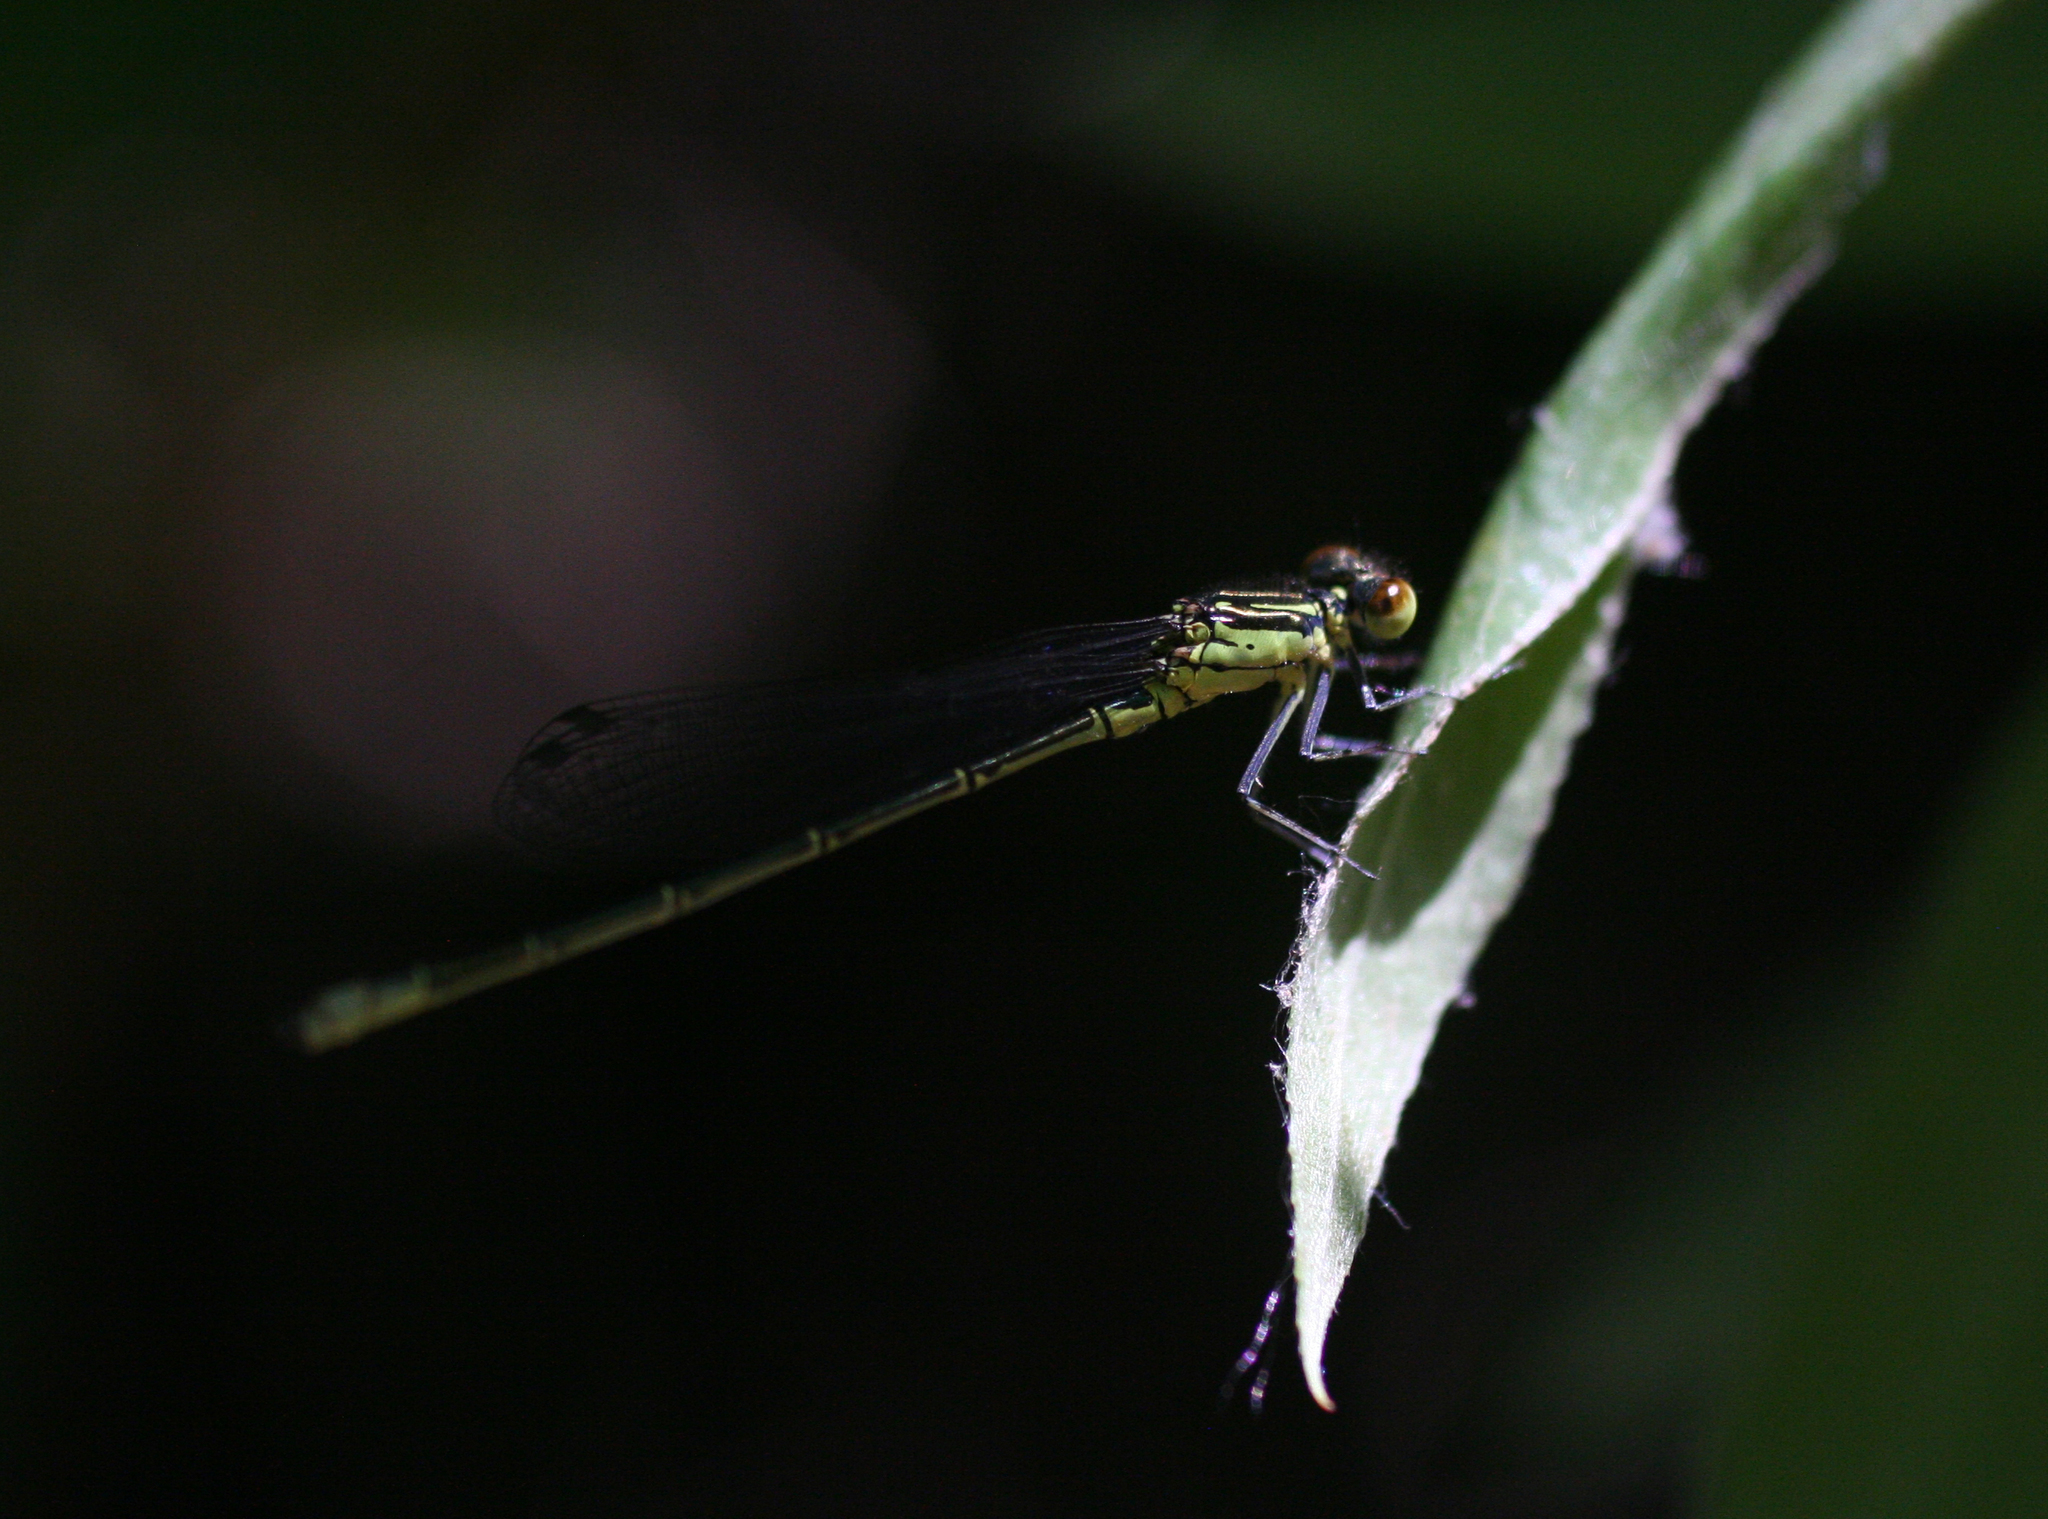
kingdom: Animalia
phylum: Arthropoda
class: Insecta
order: Odonata
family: Coenagrionidae
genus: Erythromma
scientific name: Erythromma viridulum
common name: Small red-eyed damselfly
